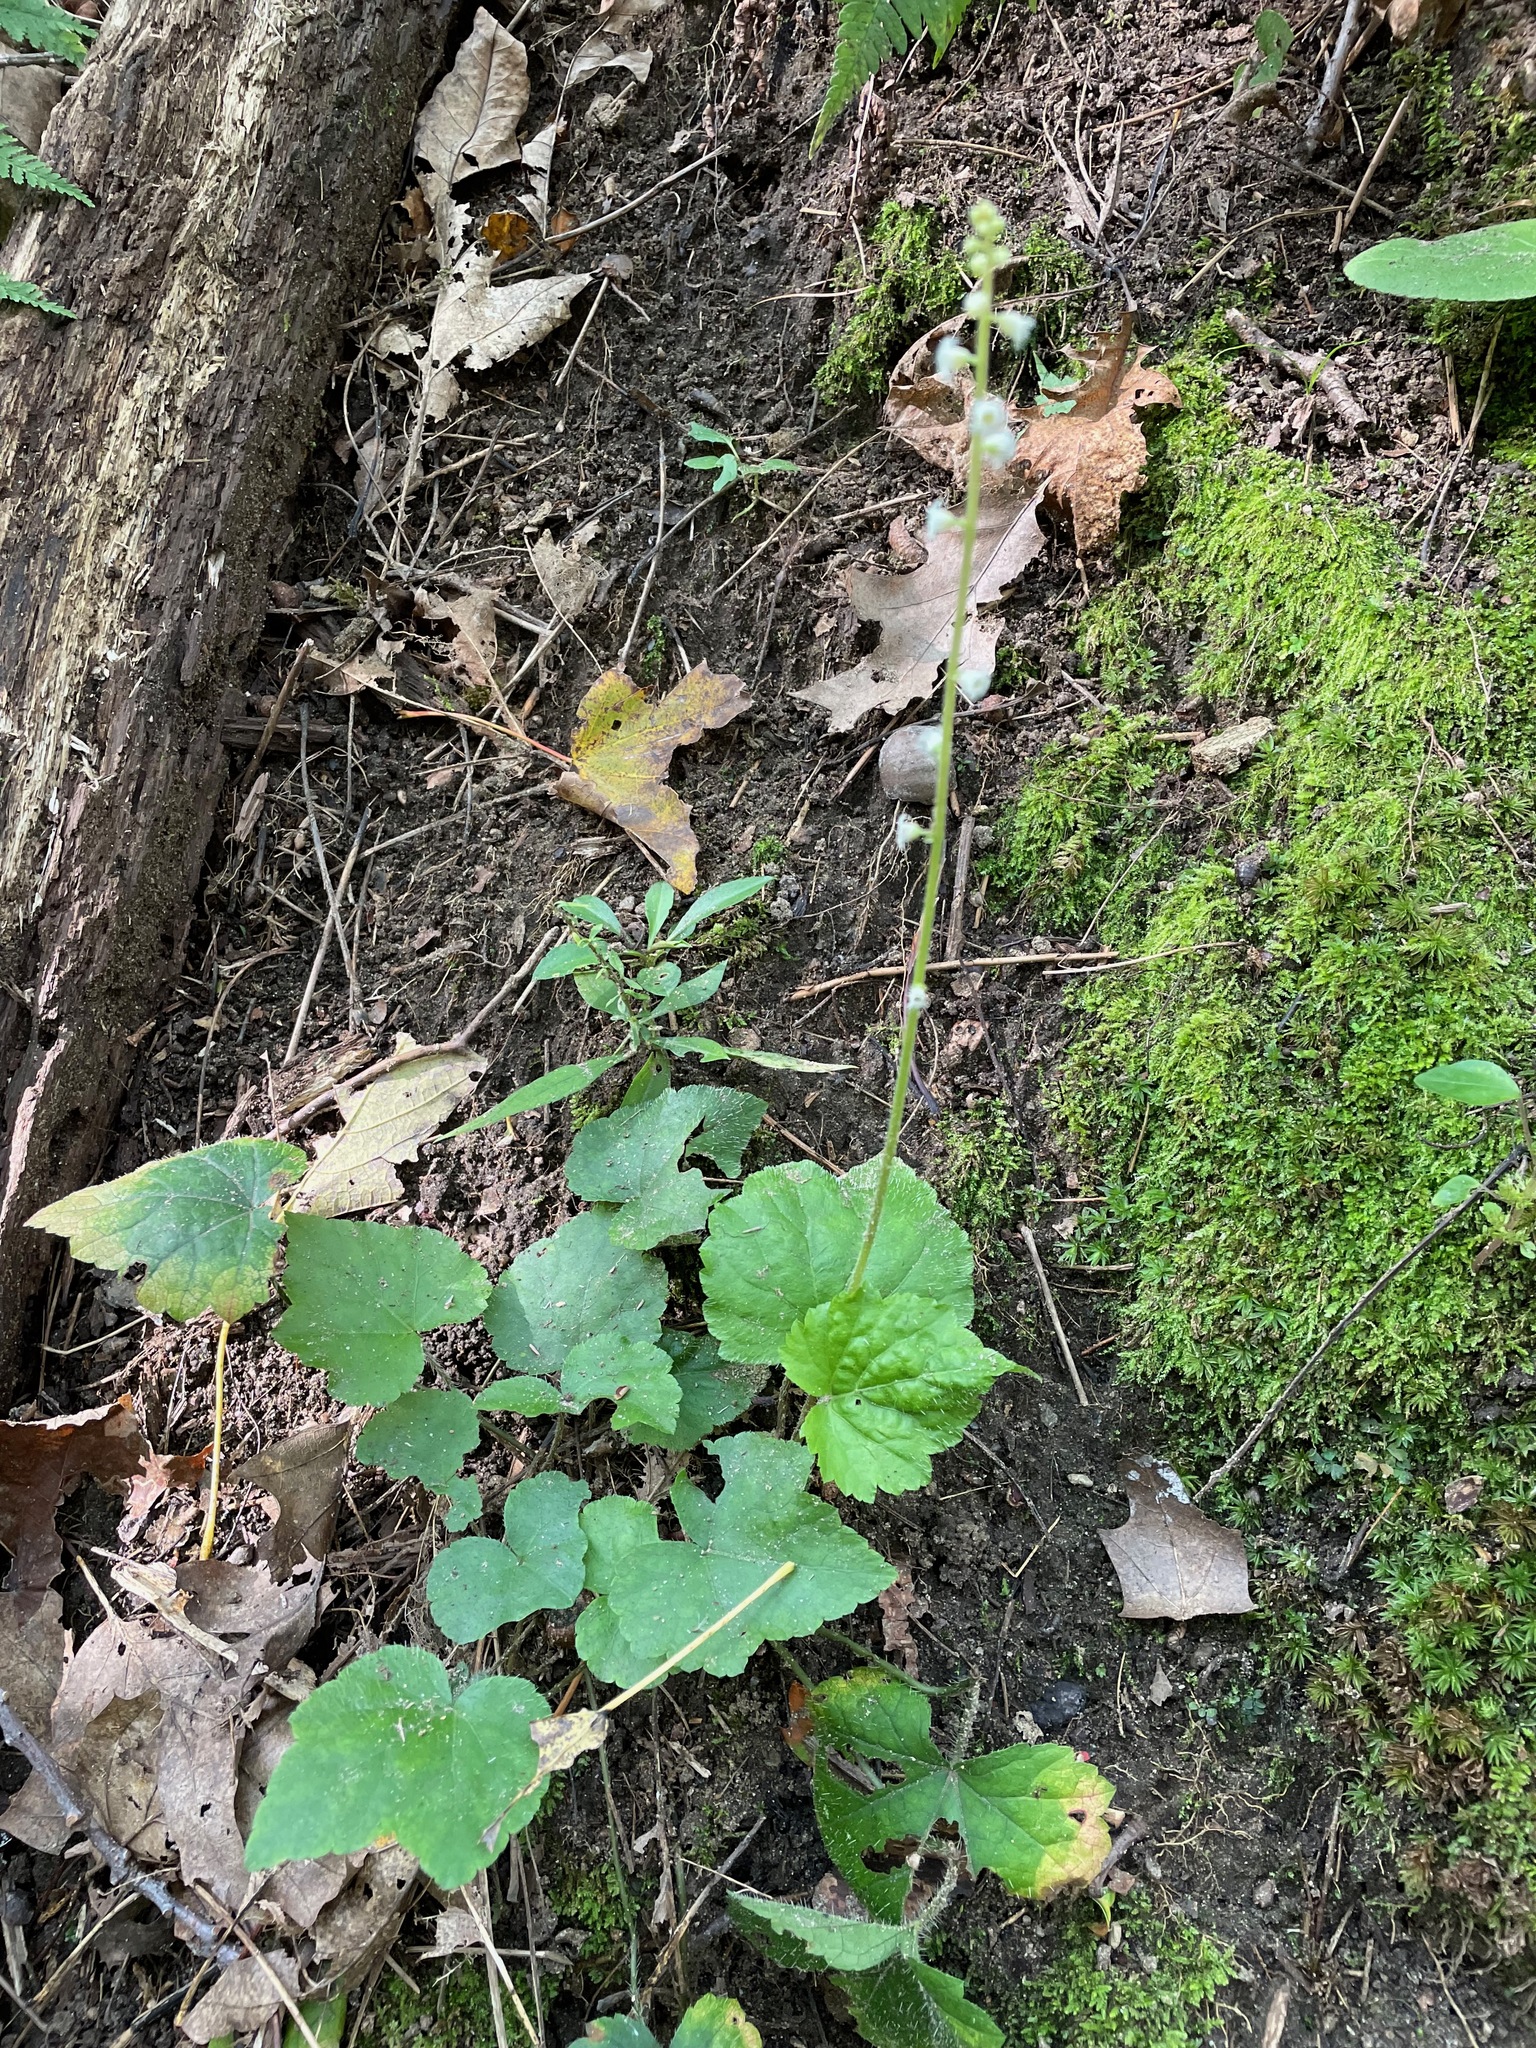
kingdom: Plantae
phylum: Tracheophyta
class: Magnoliopsida
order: Saxifragales
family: Saxifragaceae
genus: Mitella
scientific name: Mitella diphylla
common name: Coolwort
